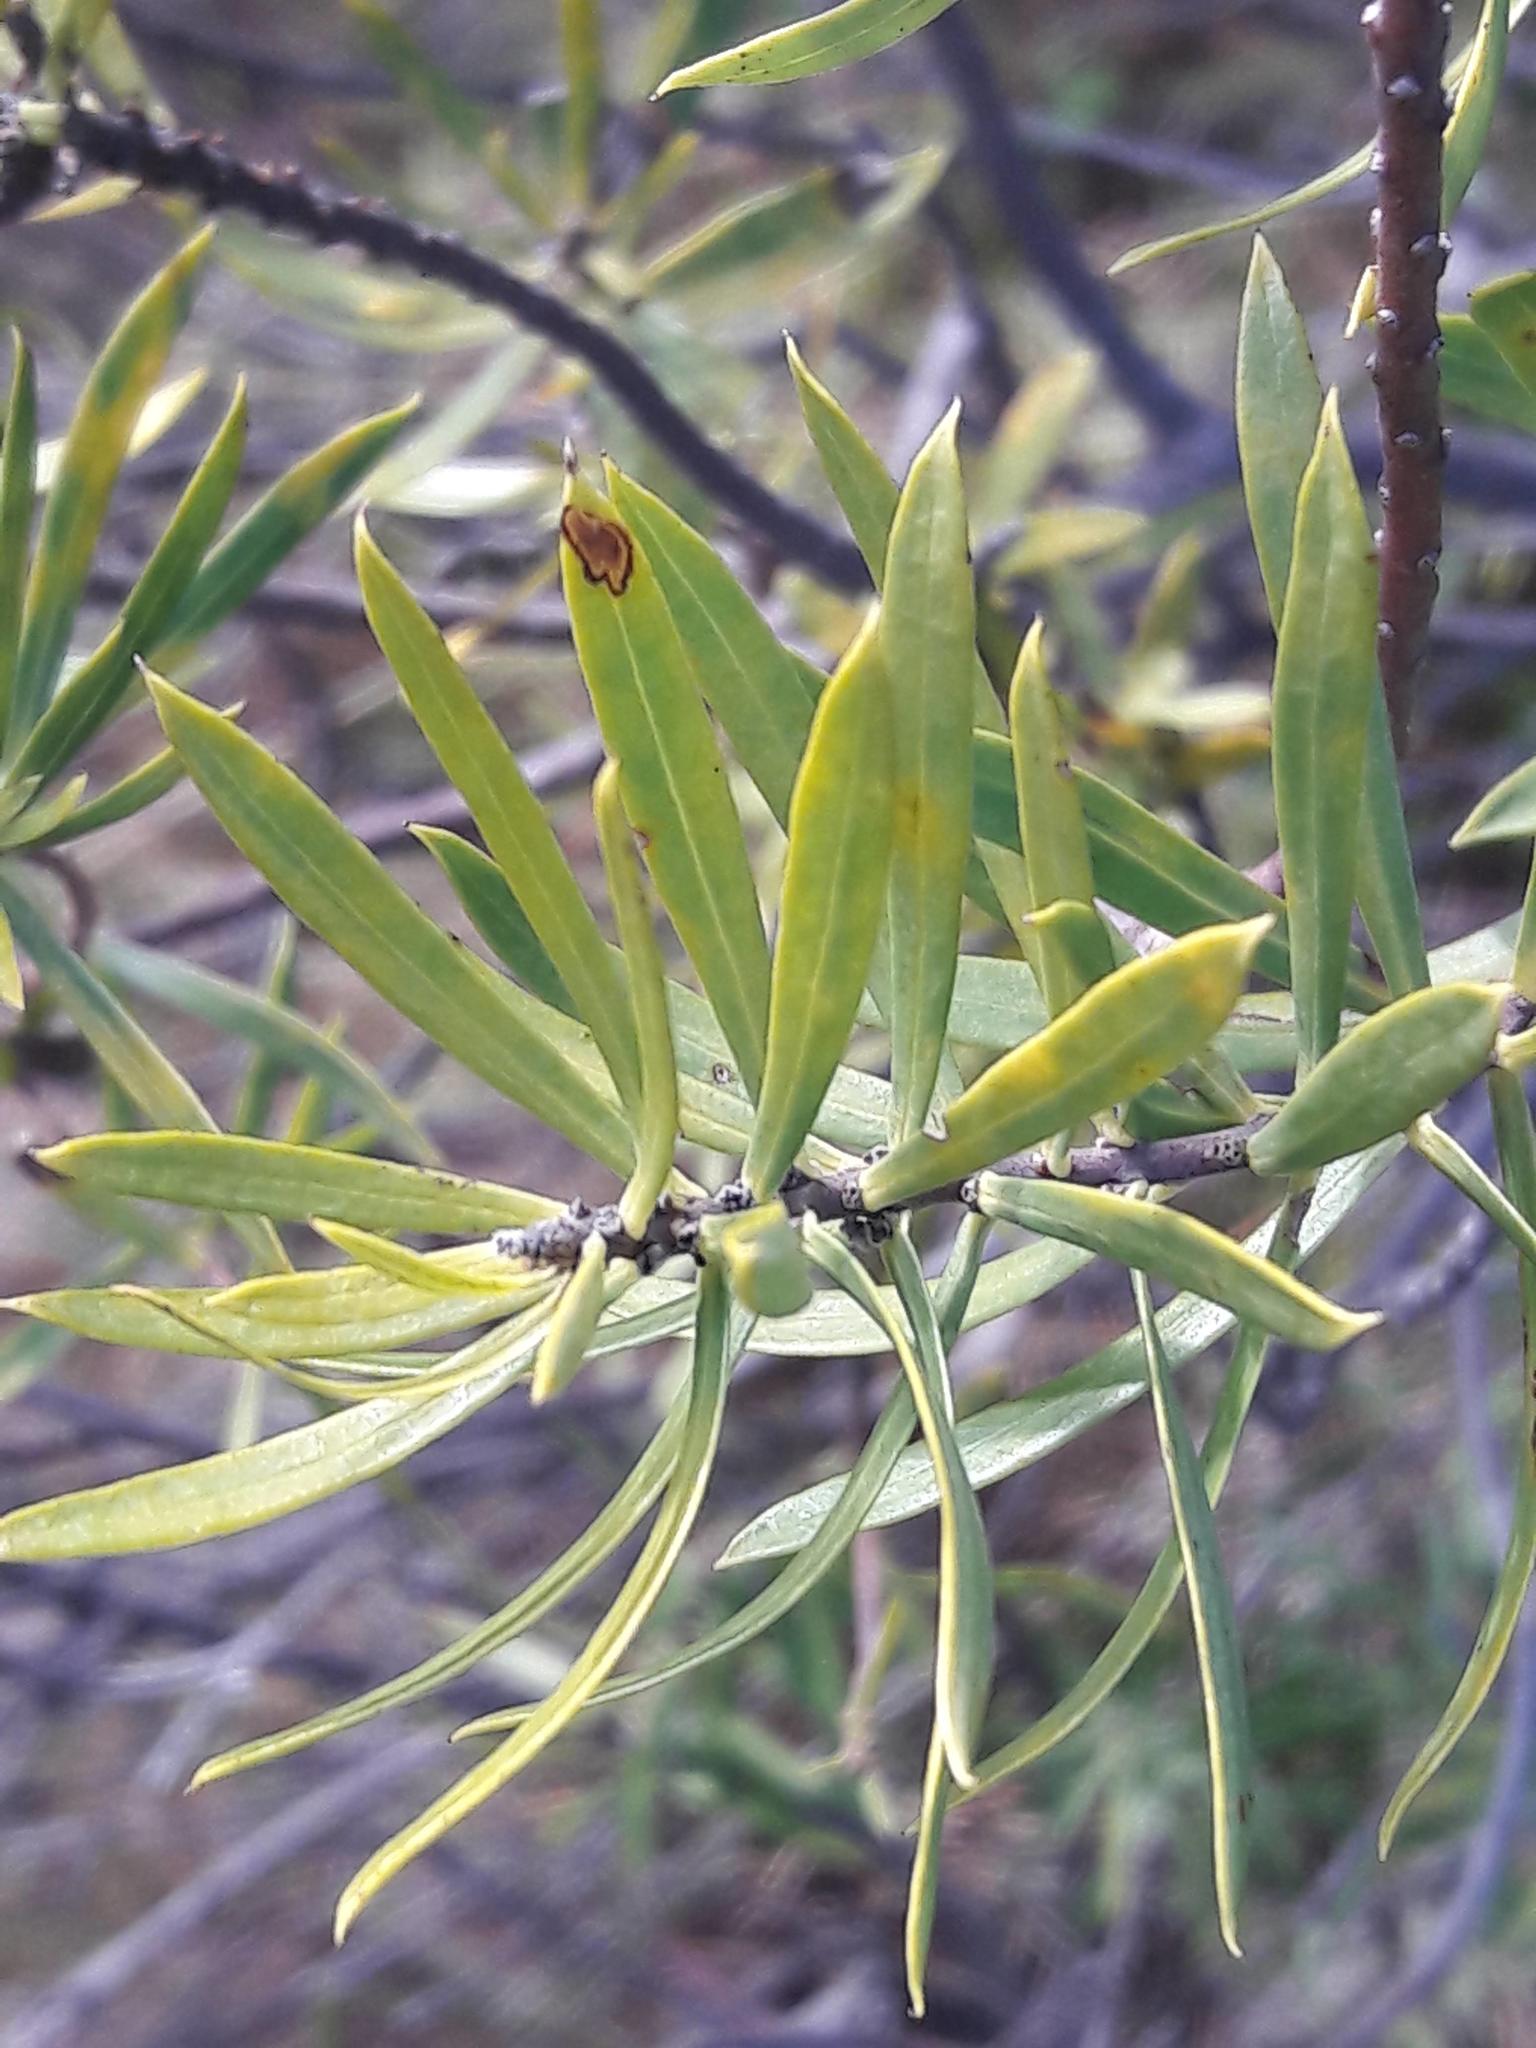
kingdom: Plantae
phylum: Tracheophyta
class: Magnoliopsida
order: Malvales
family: Thymelaeaceae
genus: Daphne
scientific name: Daphne gnidium
